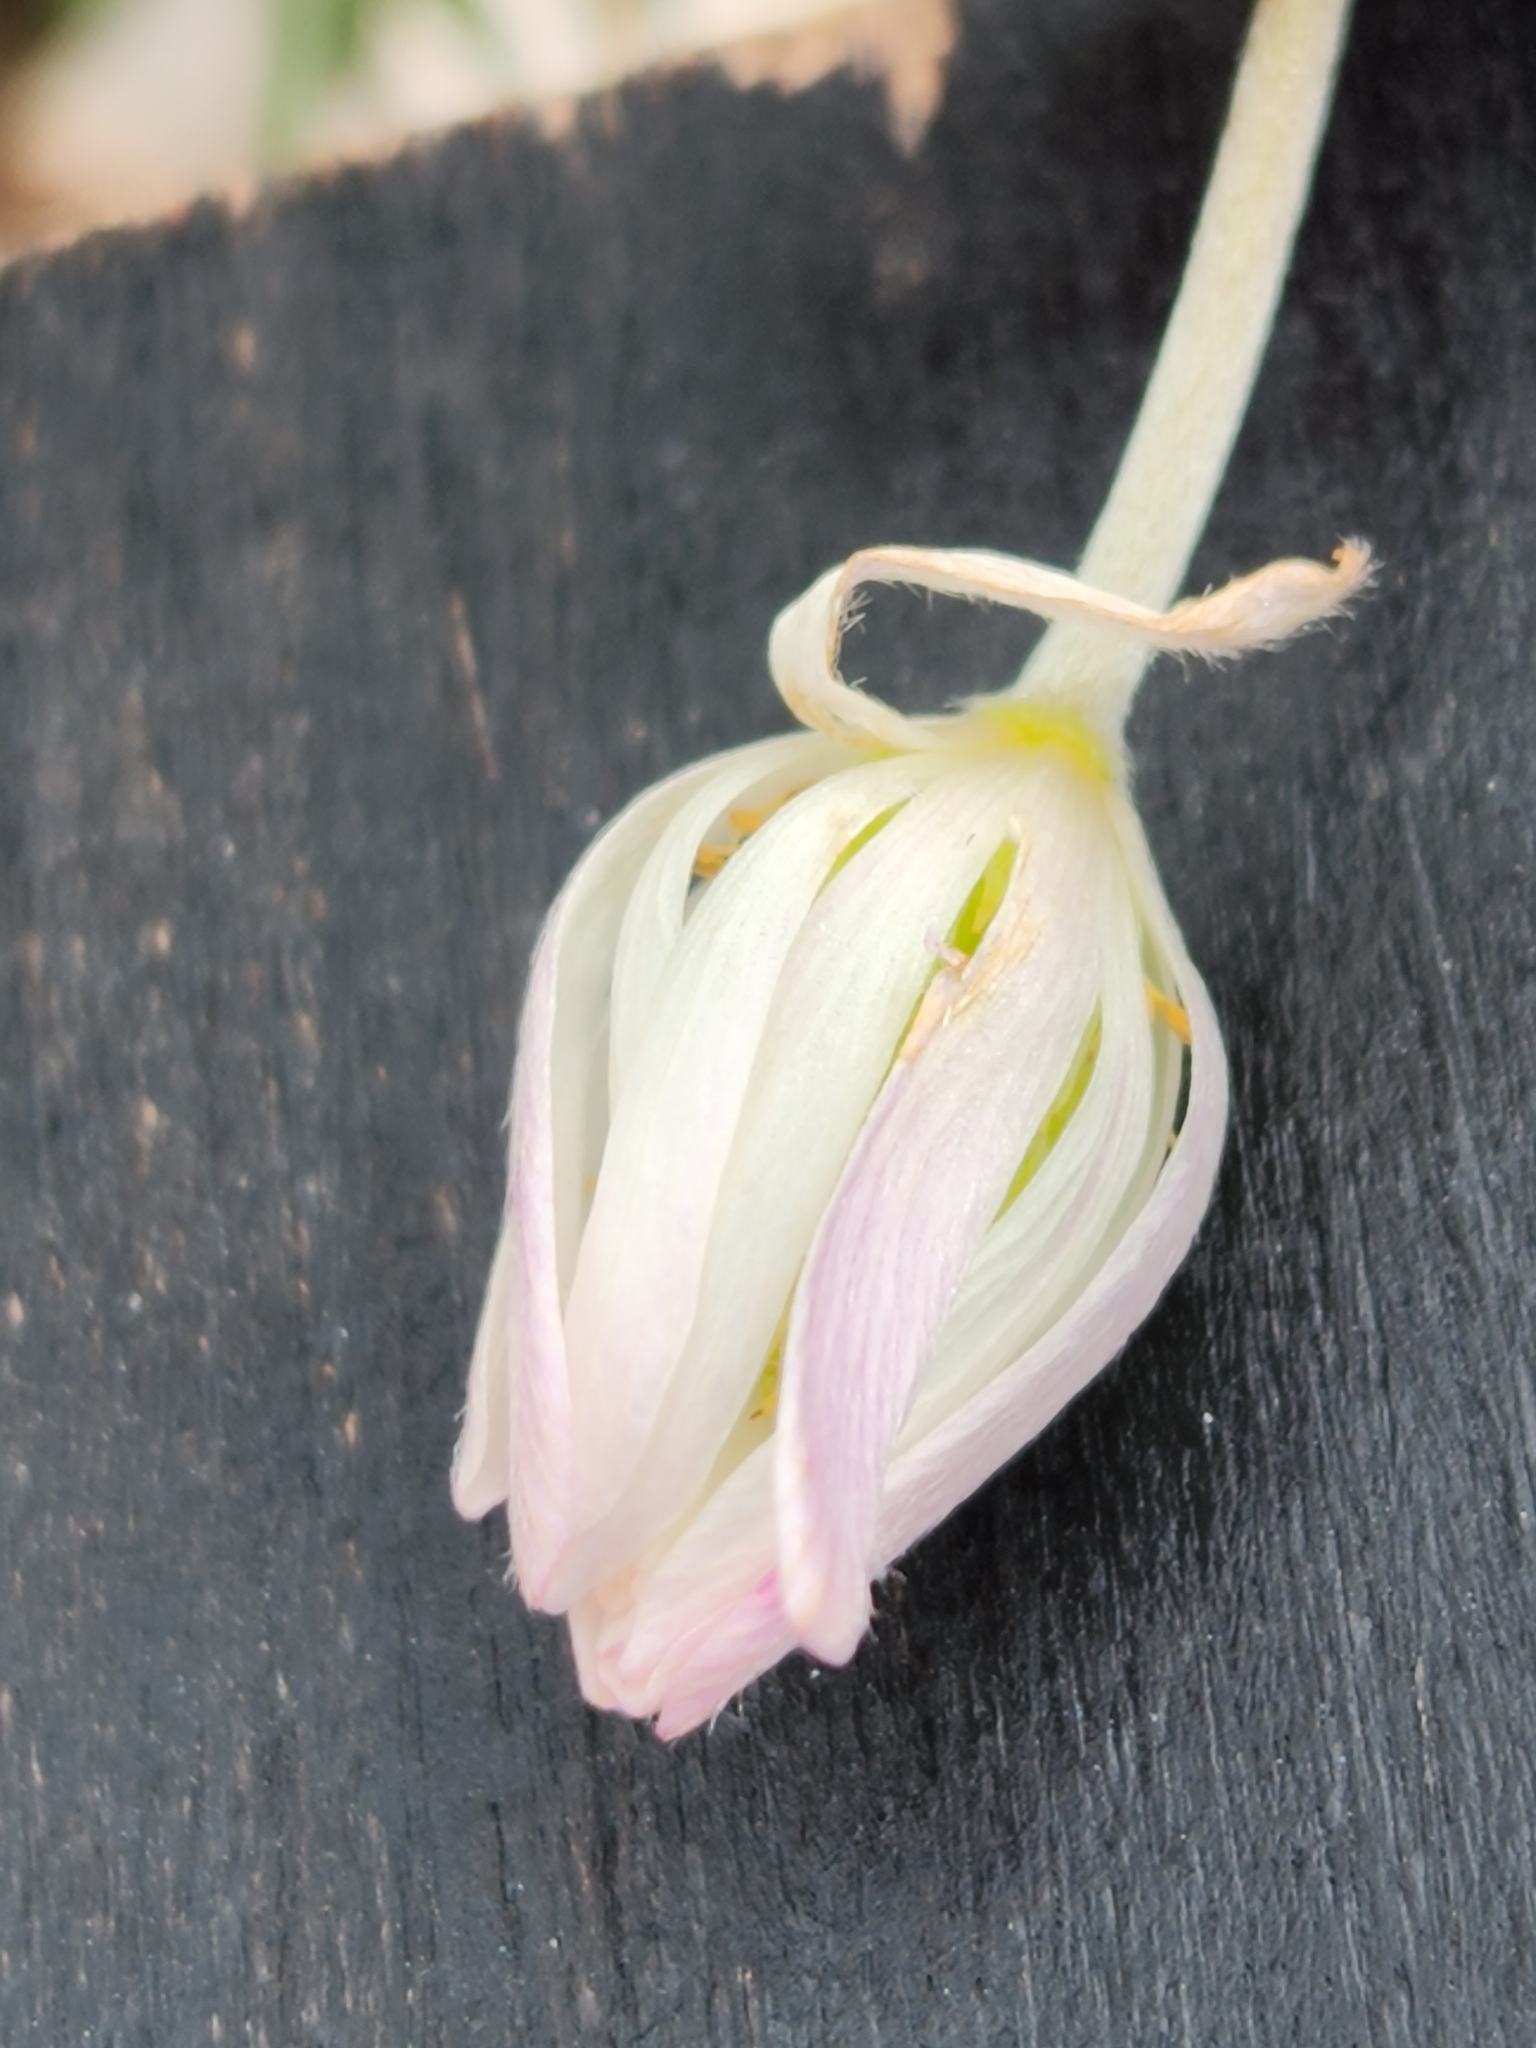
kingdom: Plantae
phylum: Tracheophyta
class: Magnoliopsida
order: Ranunculales
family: Ranunculaceae
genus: Anemone
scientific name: Anemone edwardsiana
